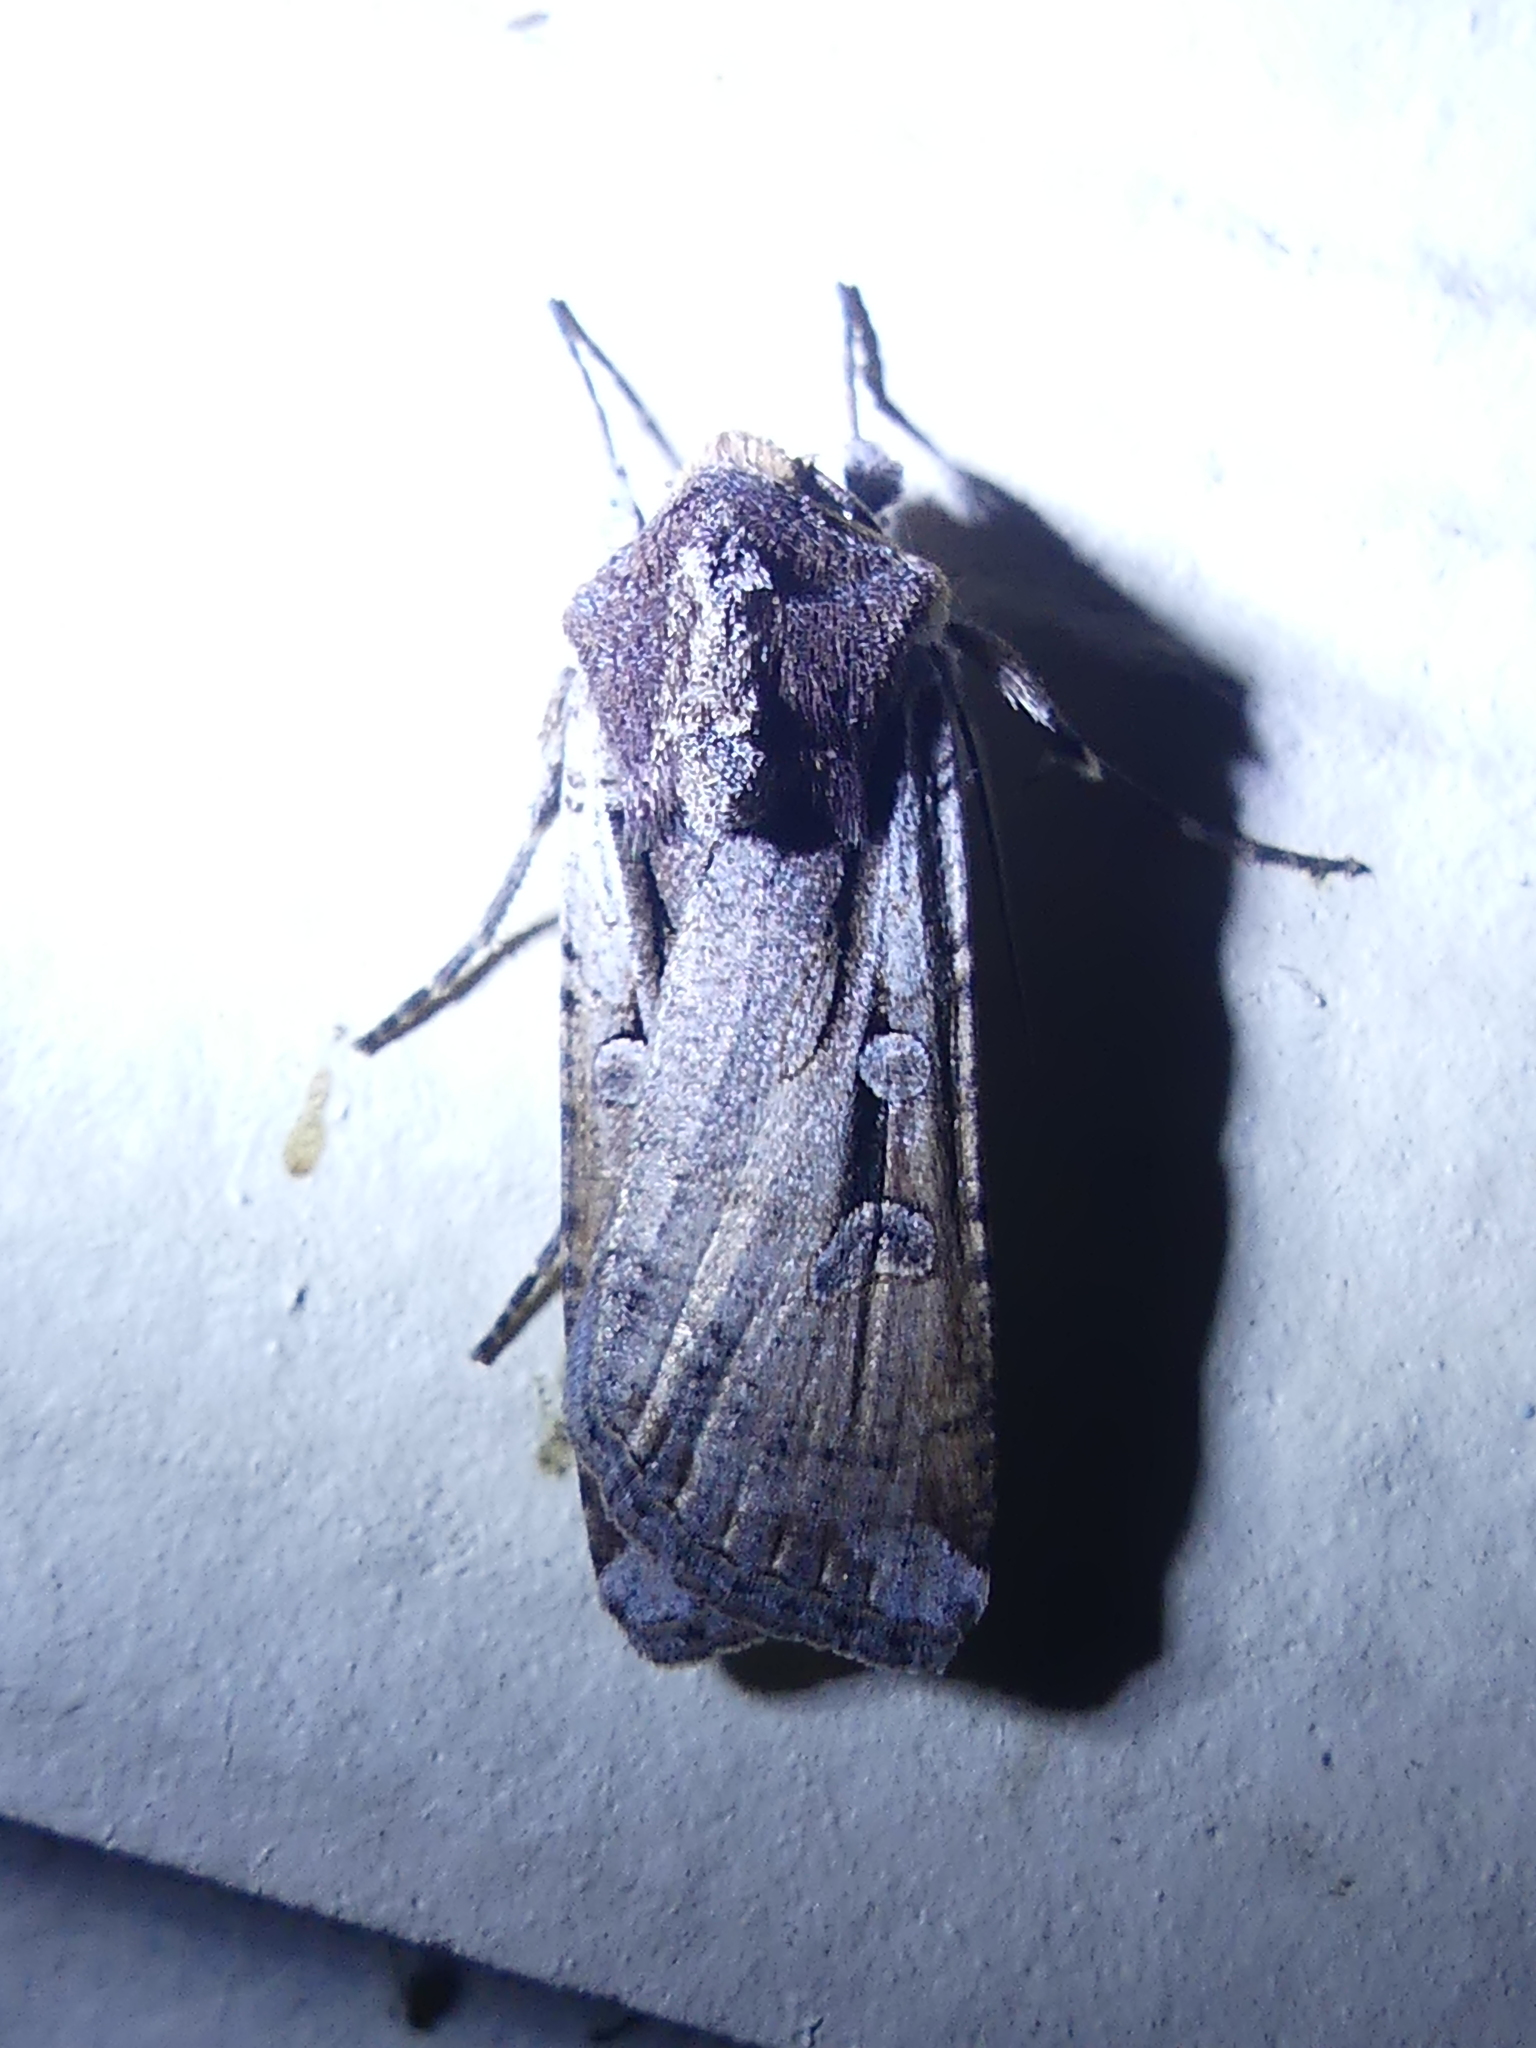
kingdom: Animalia
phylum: Arthropoda
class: Insecta
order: Lepidoptera
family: Noctuidae
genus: Hemieuxoa
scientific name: Hemieuxoa rudens
